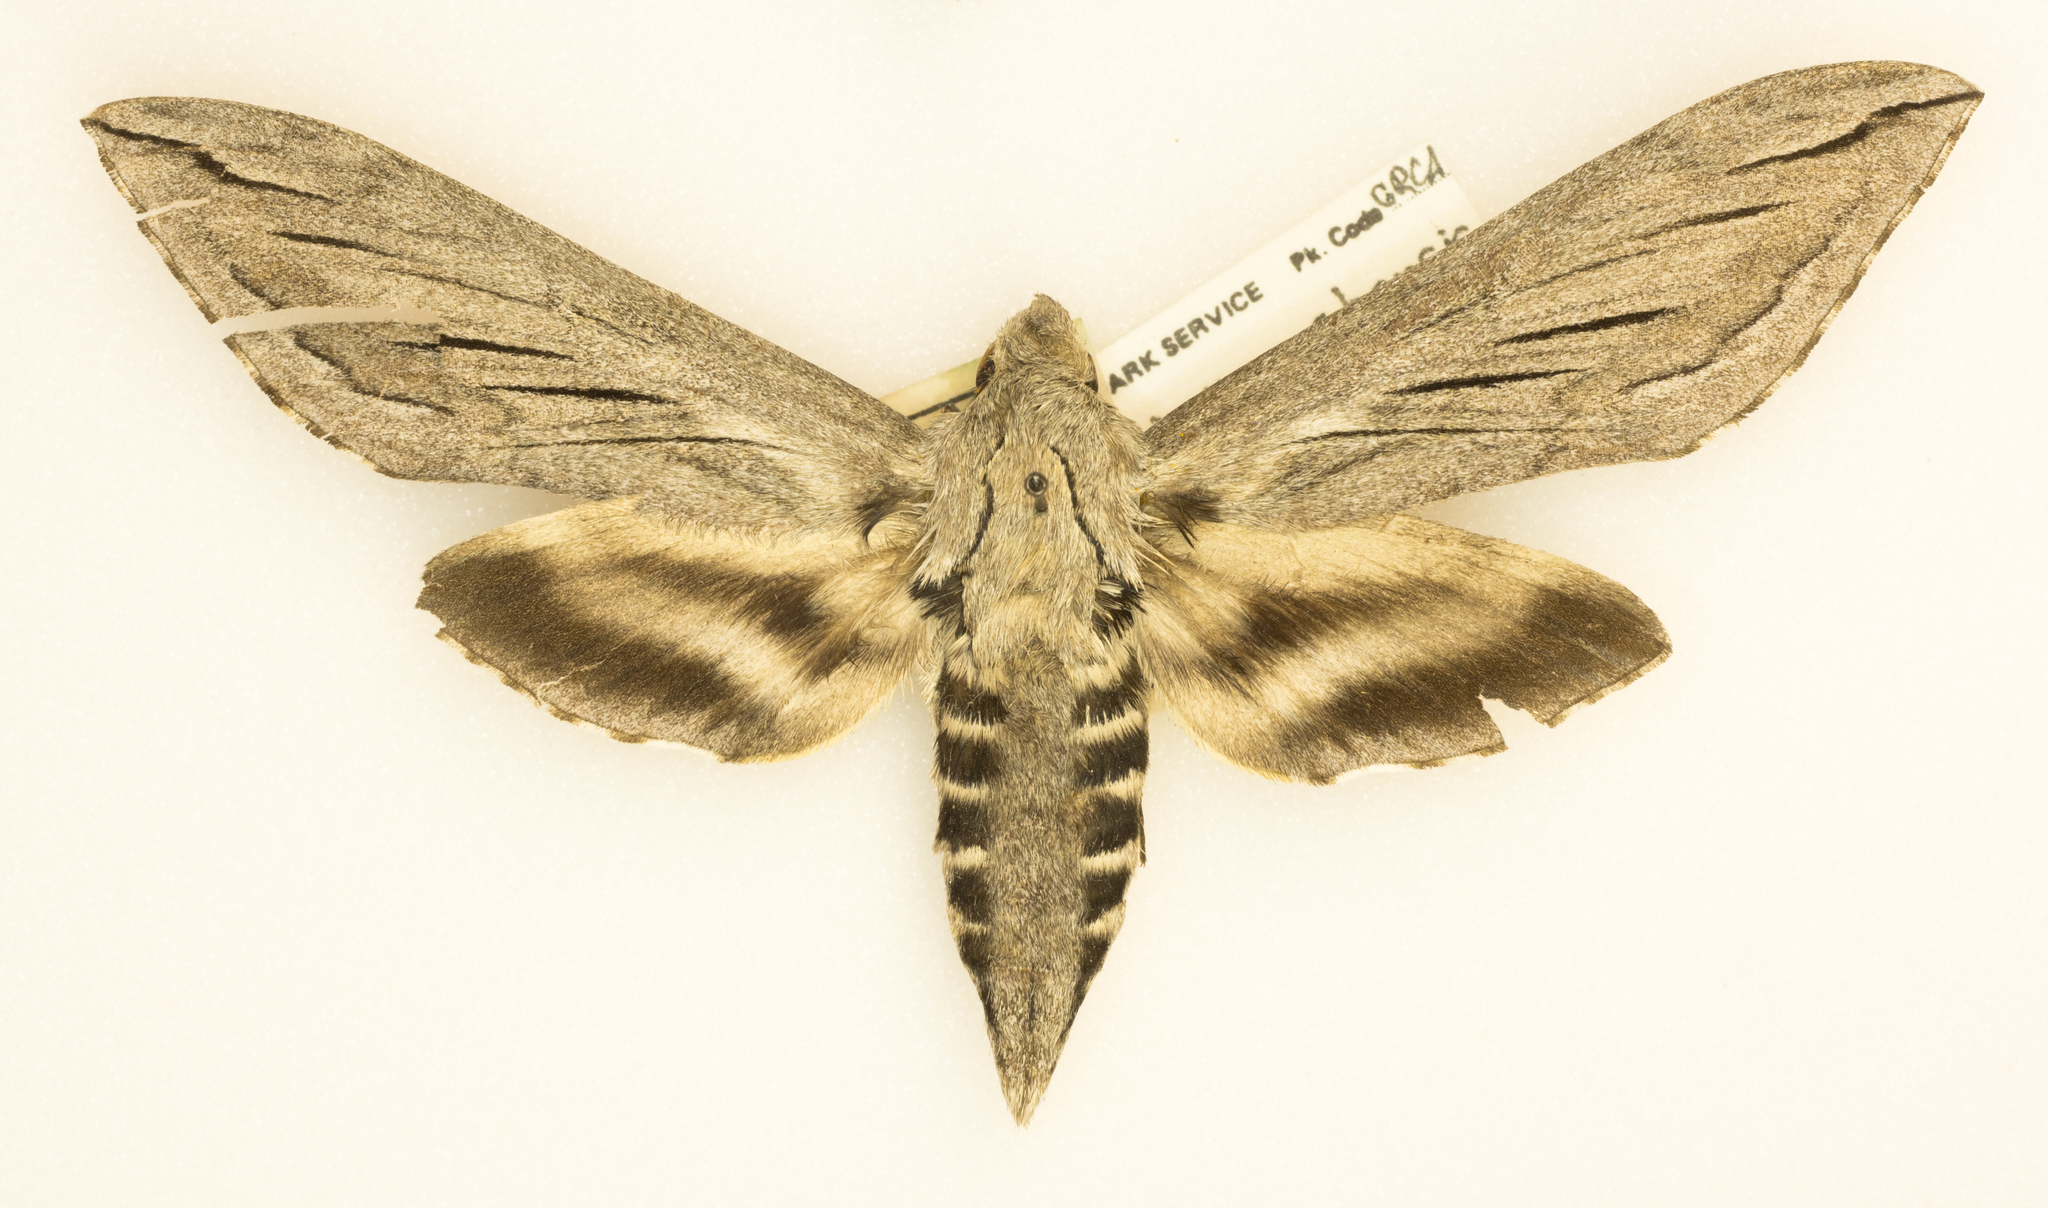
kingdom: Animalia
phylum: Arthropoda
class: Insecta
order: Lepidoptera
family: Sphingidae
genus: Sphinx
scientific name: Sphinx chersis
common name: Great ash sphinx
